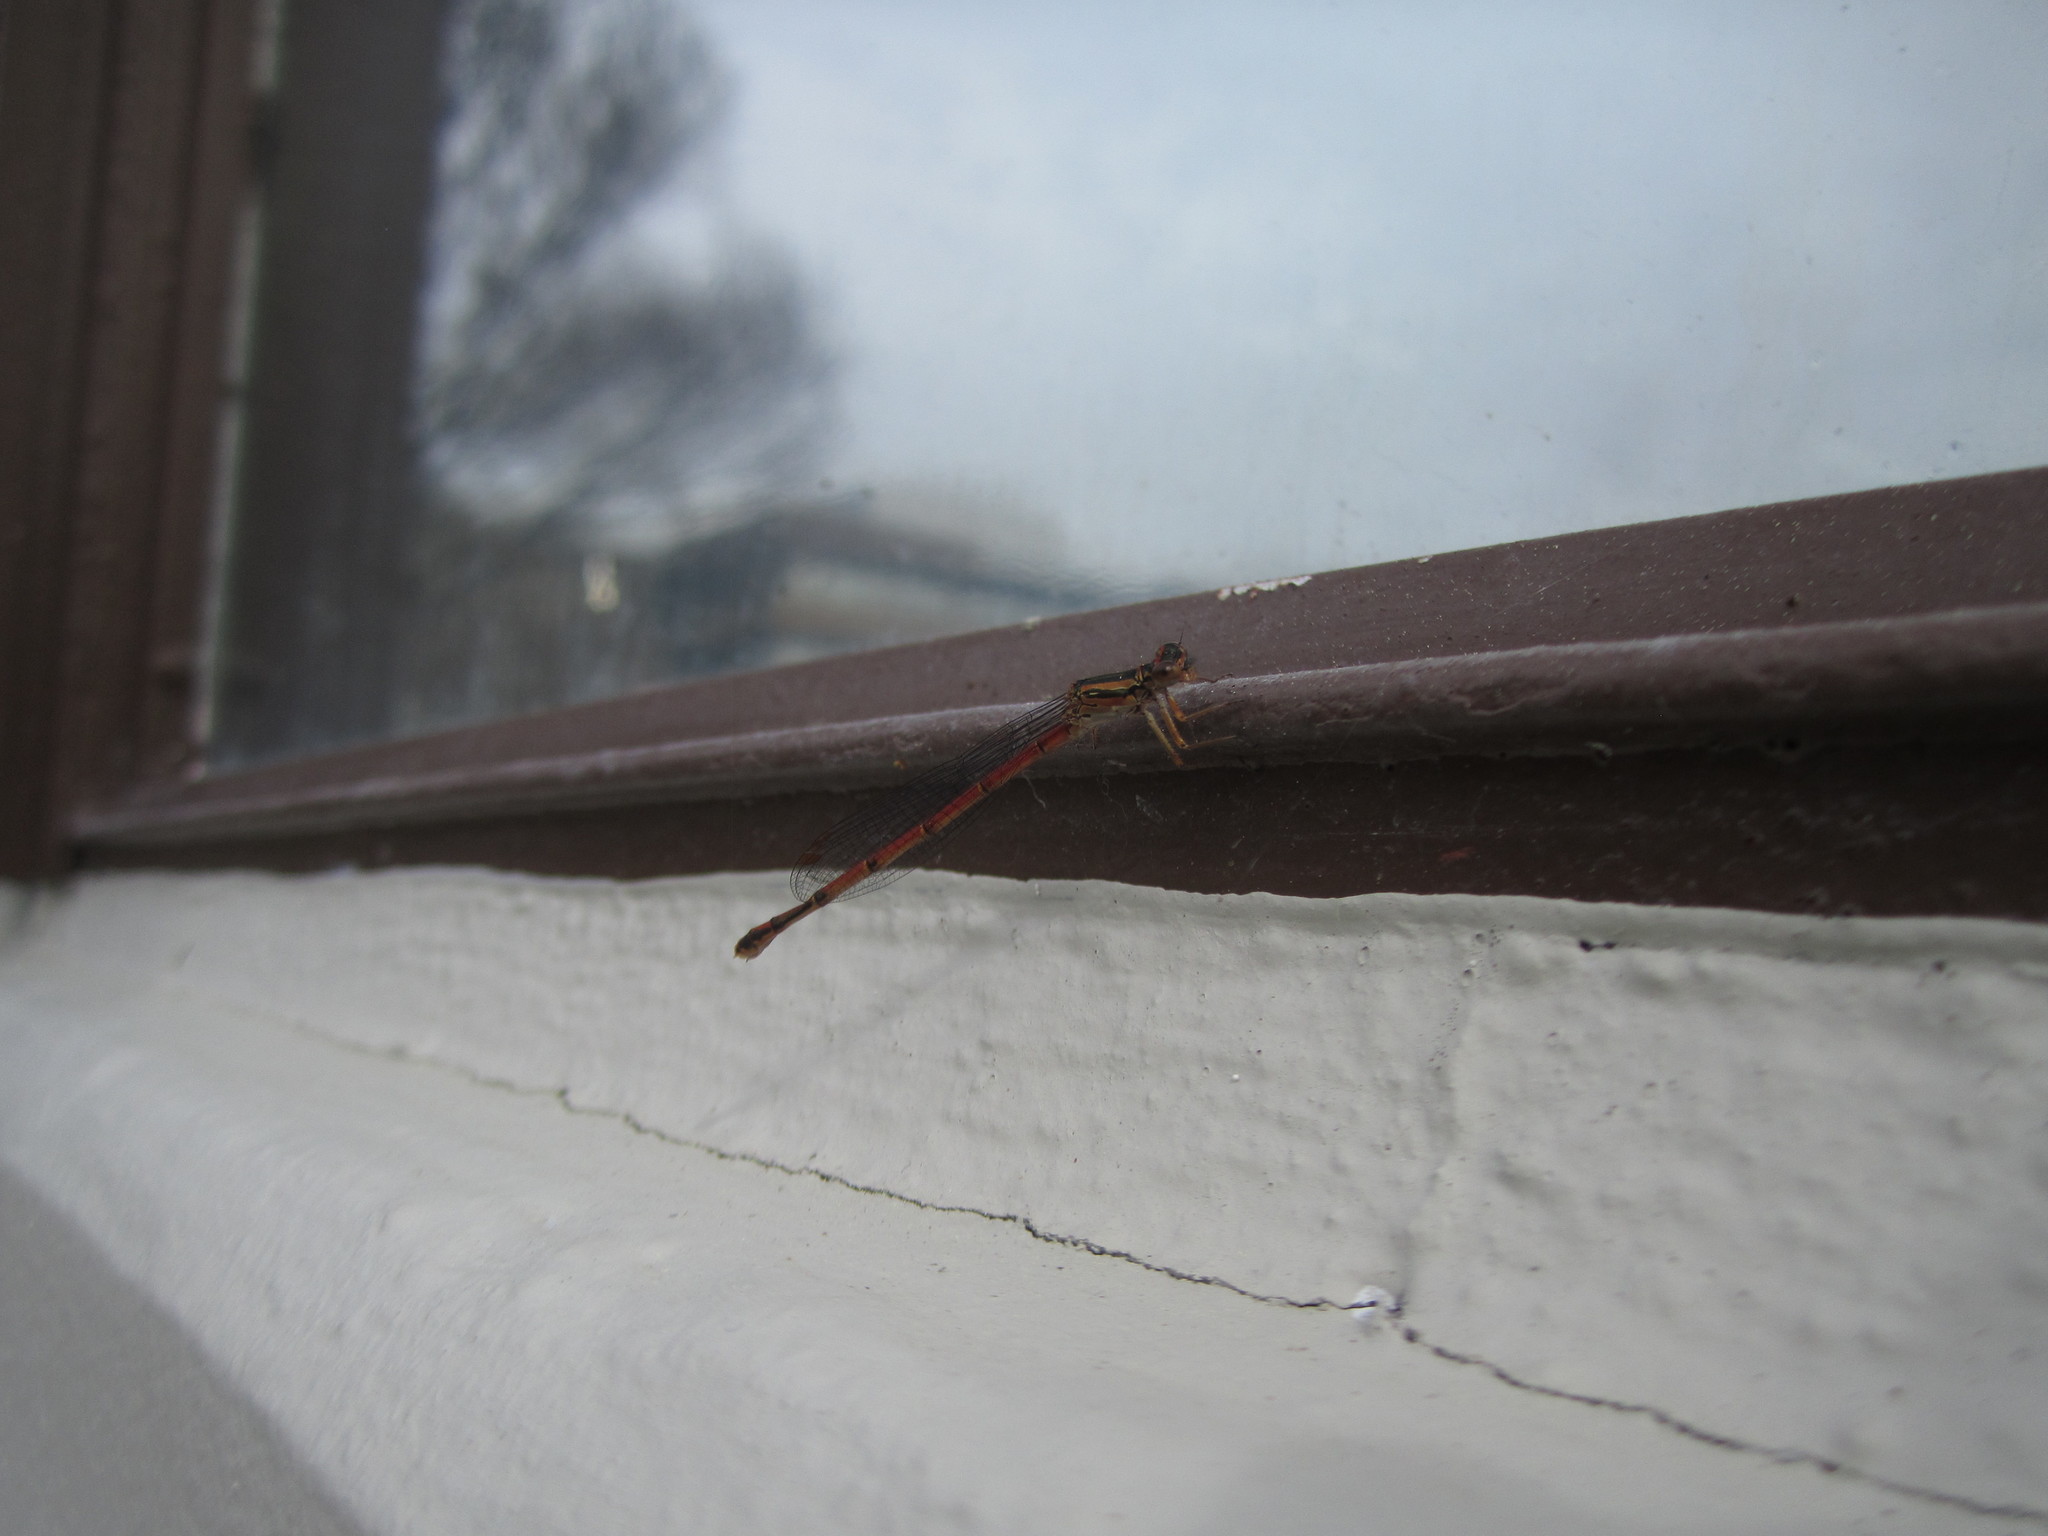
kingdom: Animalia
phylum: Arthropoda
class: Insecta
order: Odonata
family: Coenagrionidae
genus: Xanthocnemis
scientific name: Xanthocnemis zealandica
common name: Common redcoat damselfly
